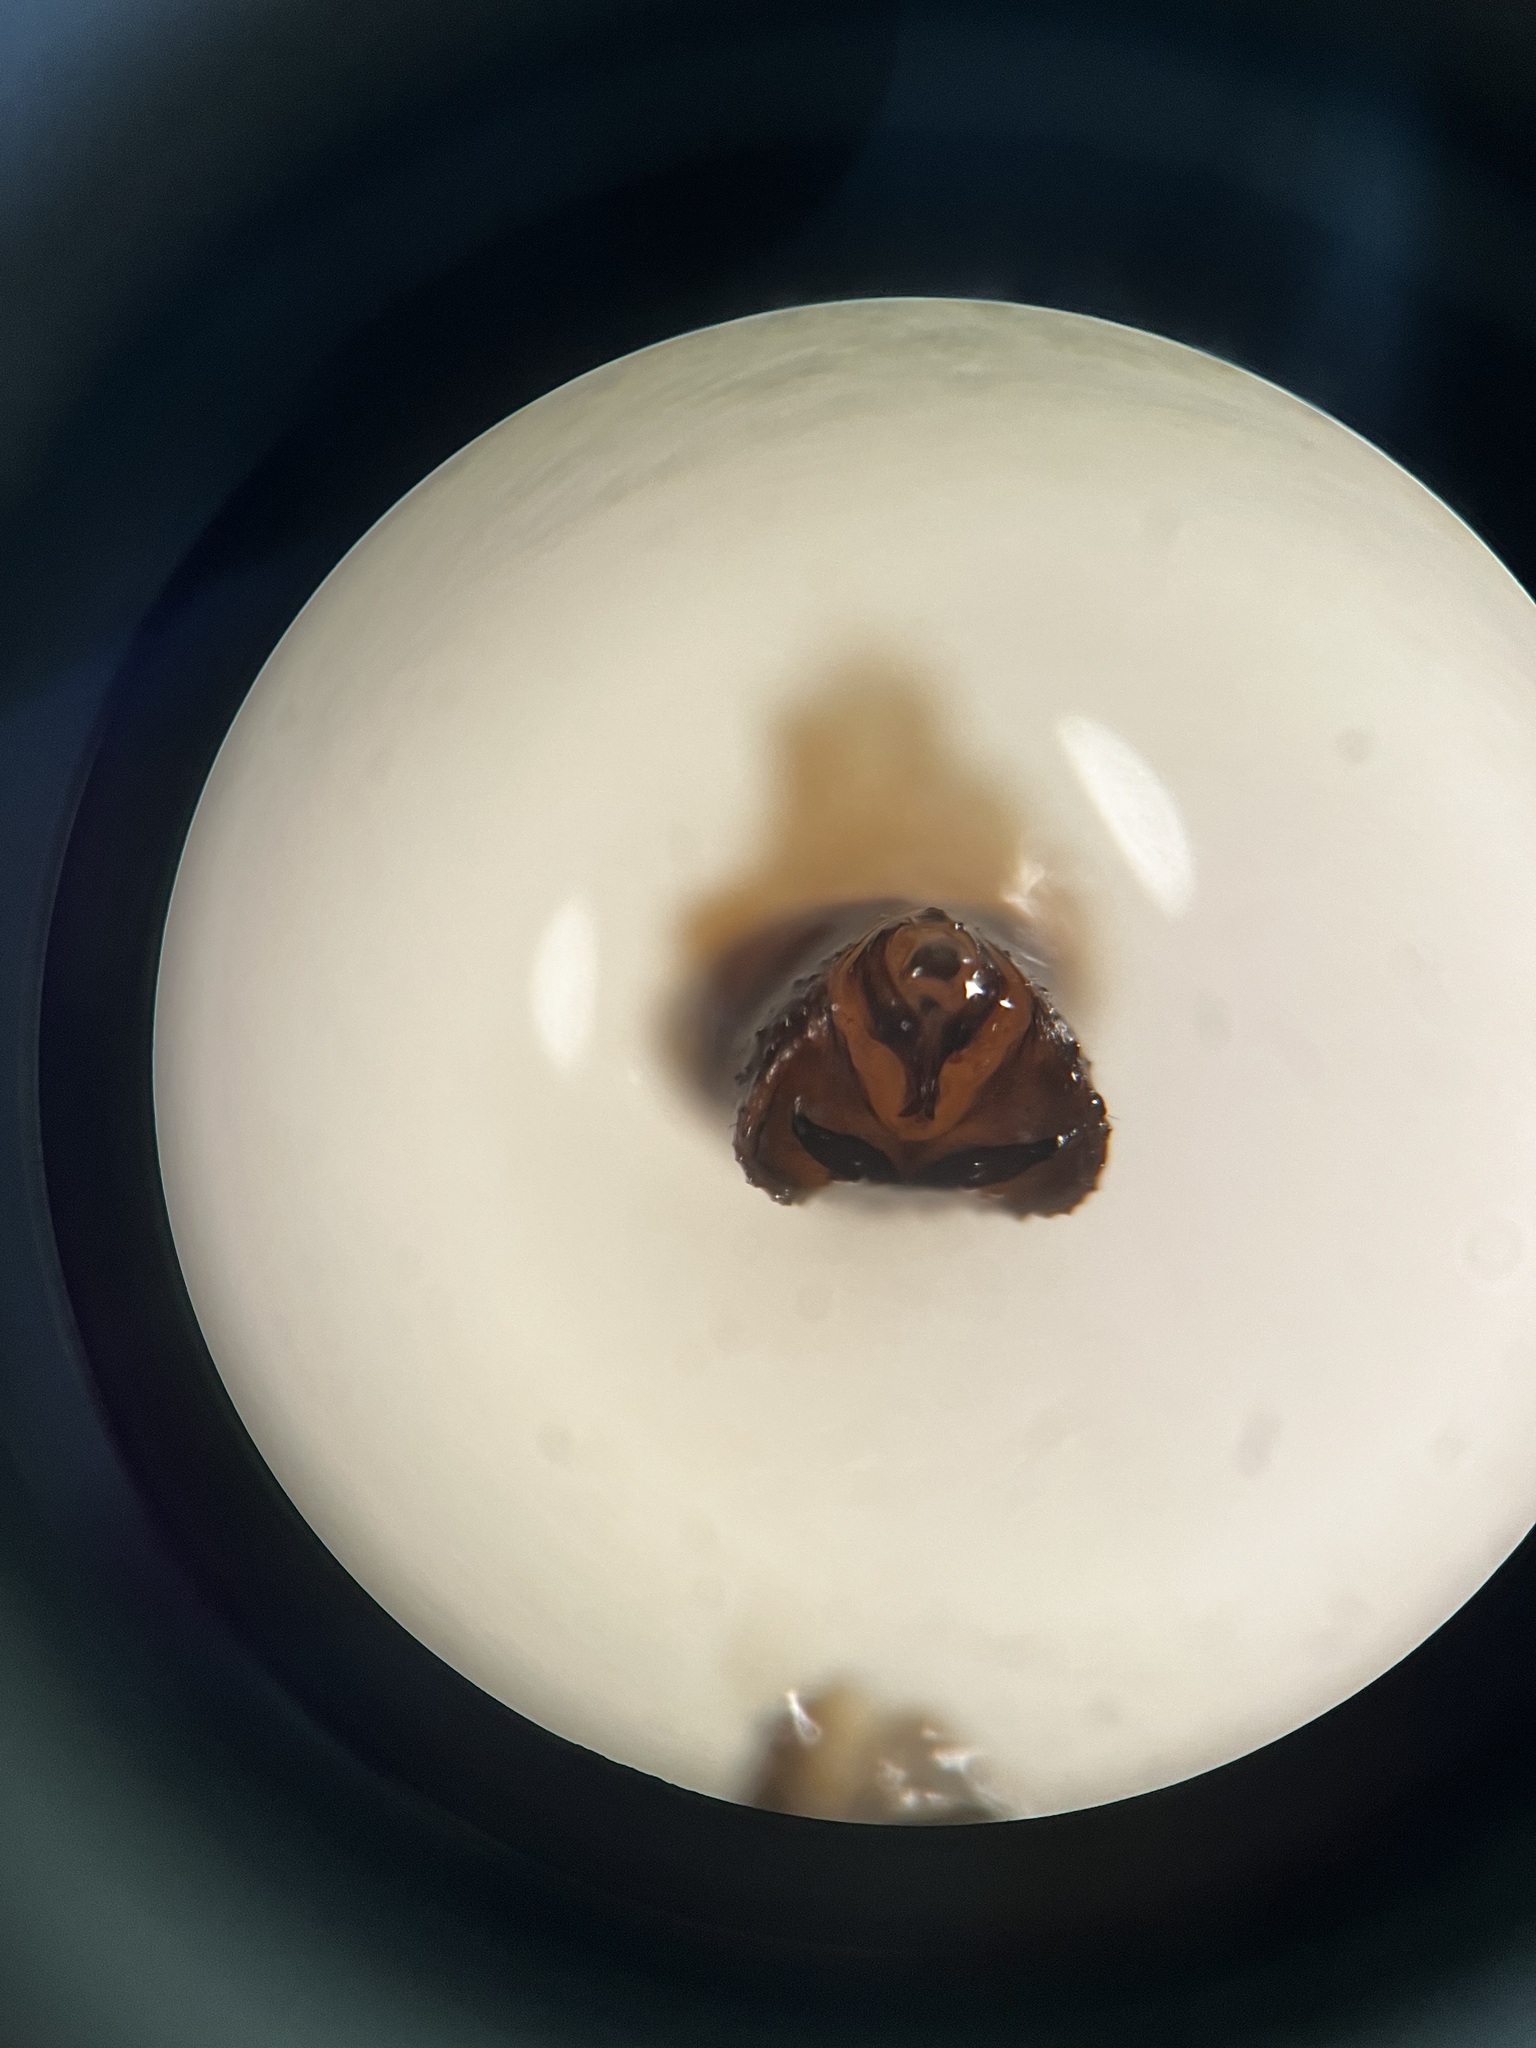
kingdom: Animalia
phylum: Arthropoda
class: Insecta
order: Hemiptera
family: Delphacidae
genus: Javesella
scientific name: Javesella pellucida
